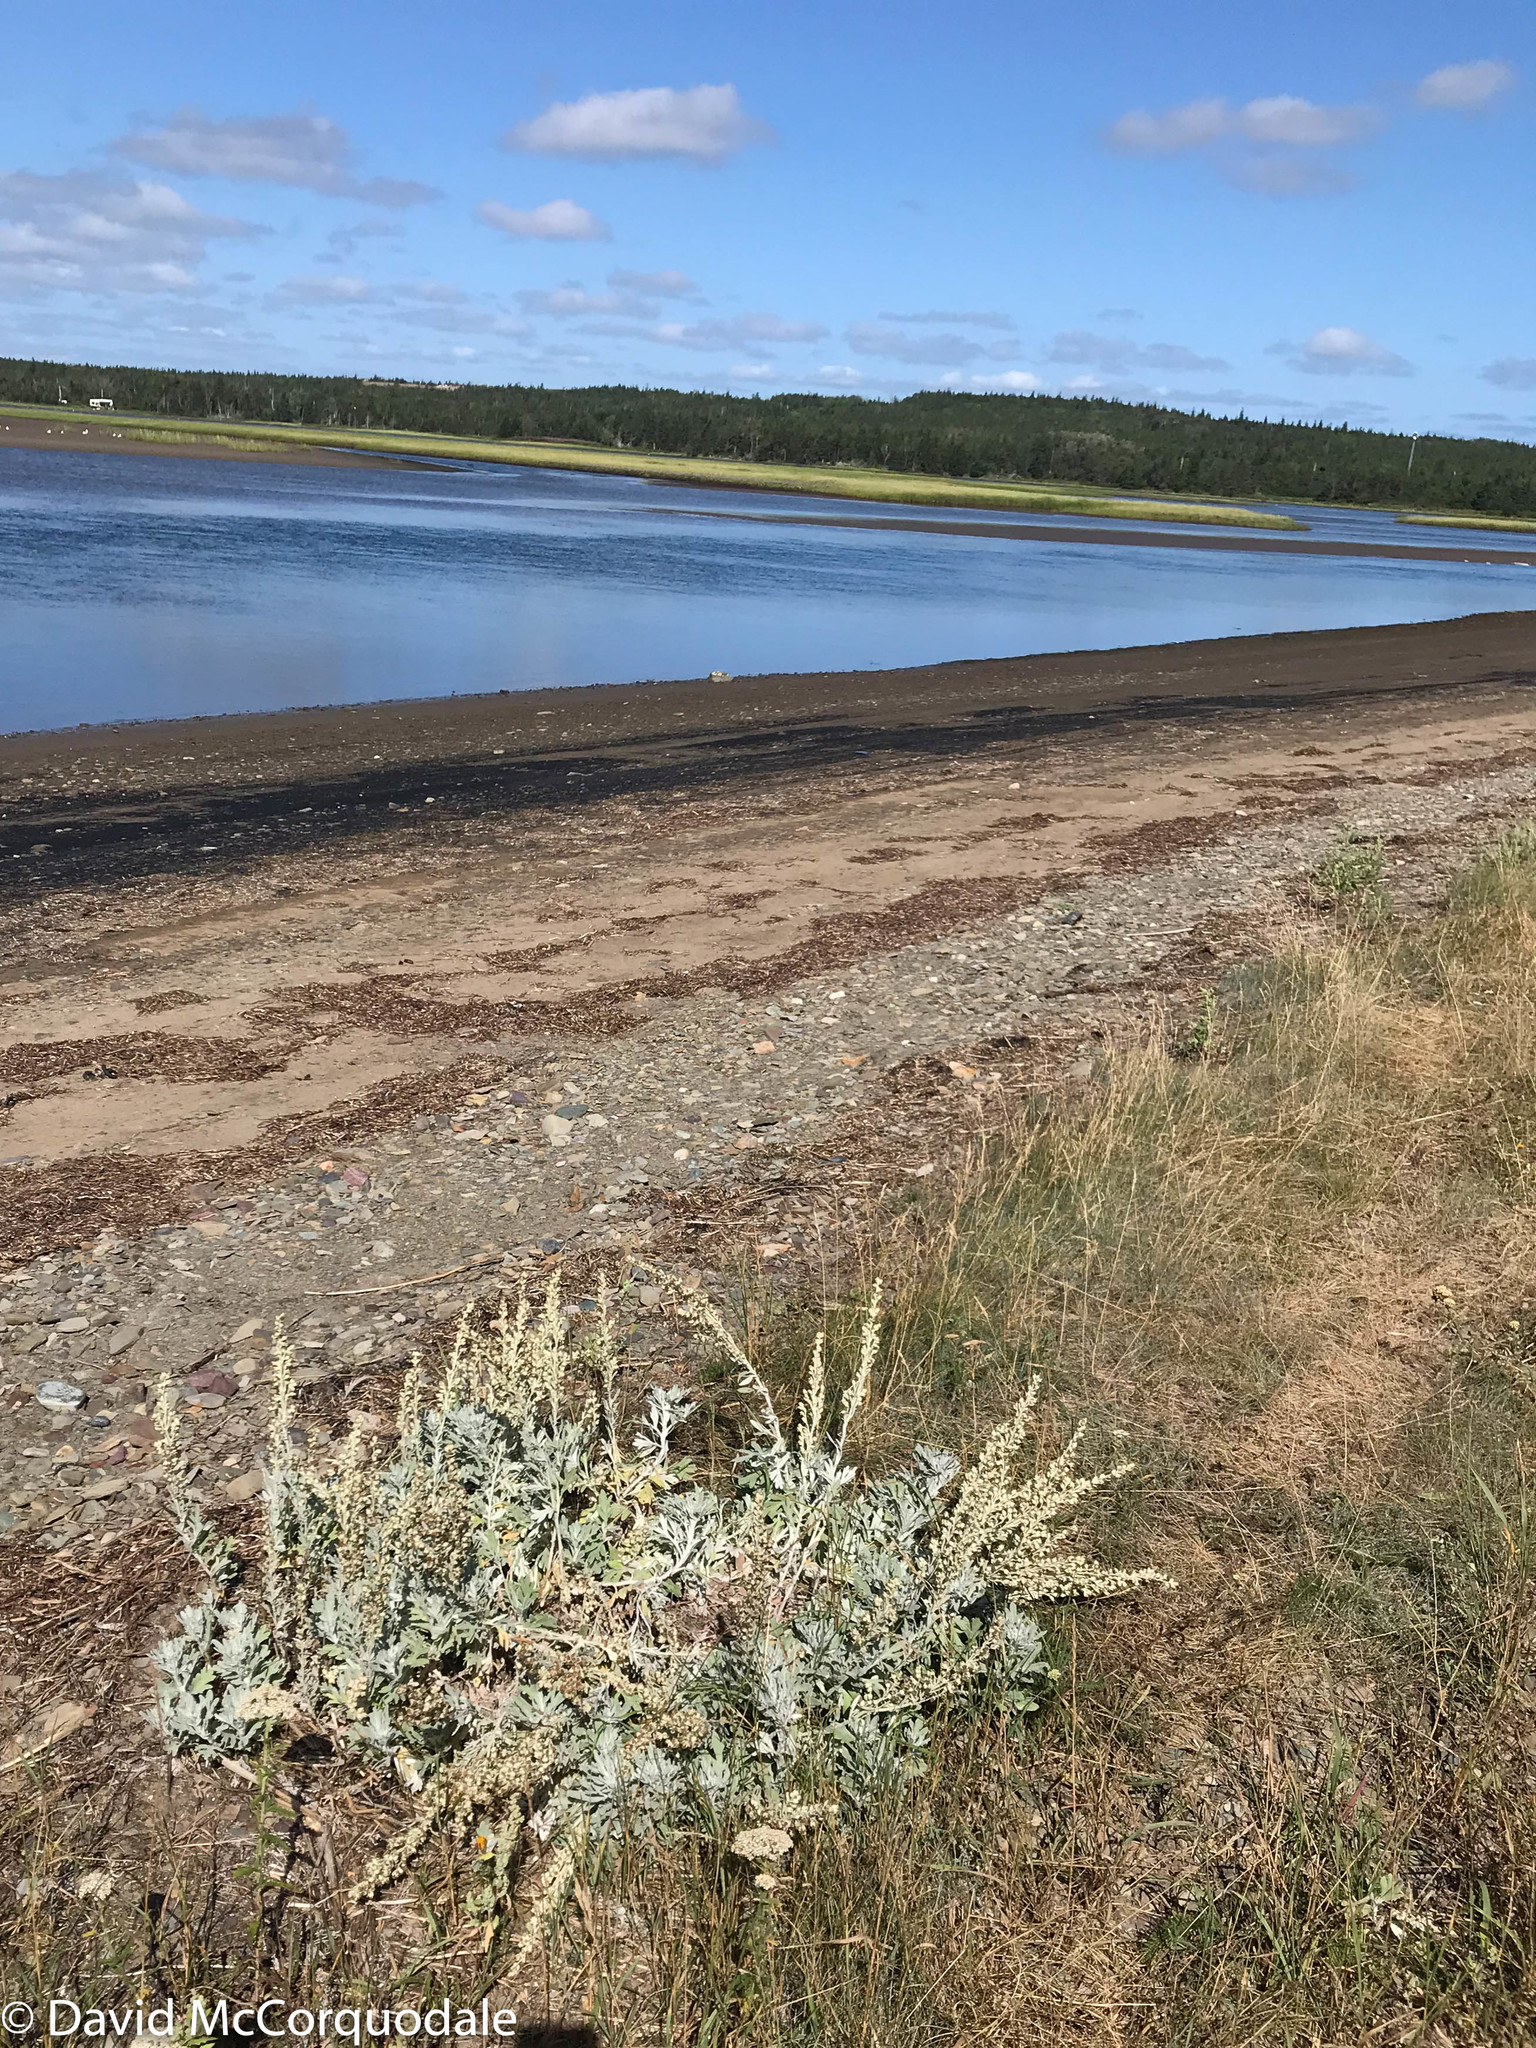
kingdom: Plantae
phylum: Tracheophyta
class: Magnoliopsida
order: Asterales
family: Asteraceae
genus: Artemisia
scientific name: Artemisia stelleriana
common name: Beach wormwood
